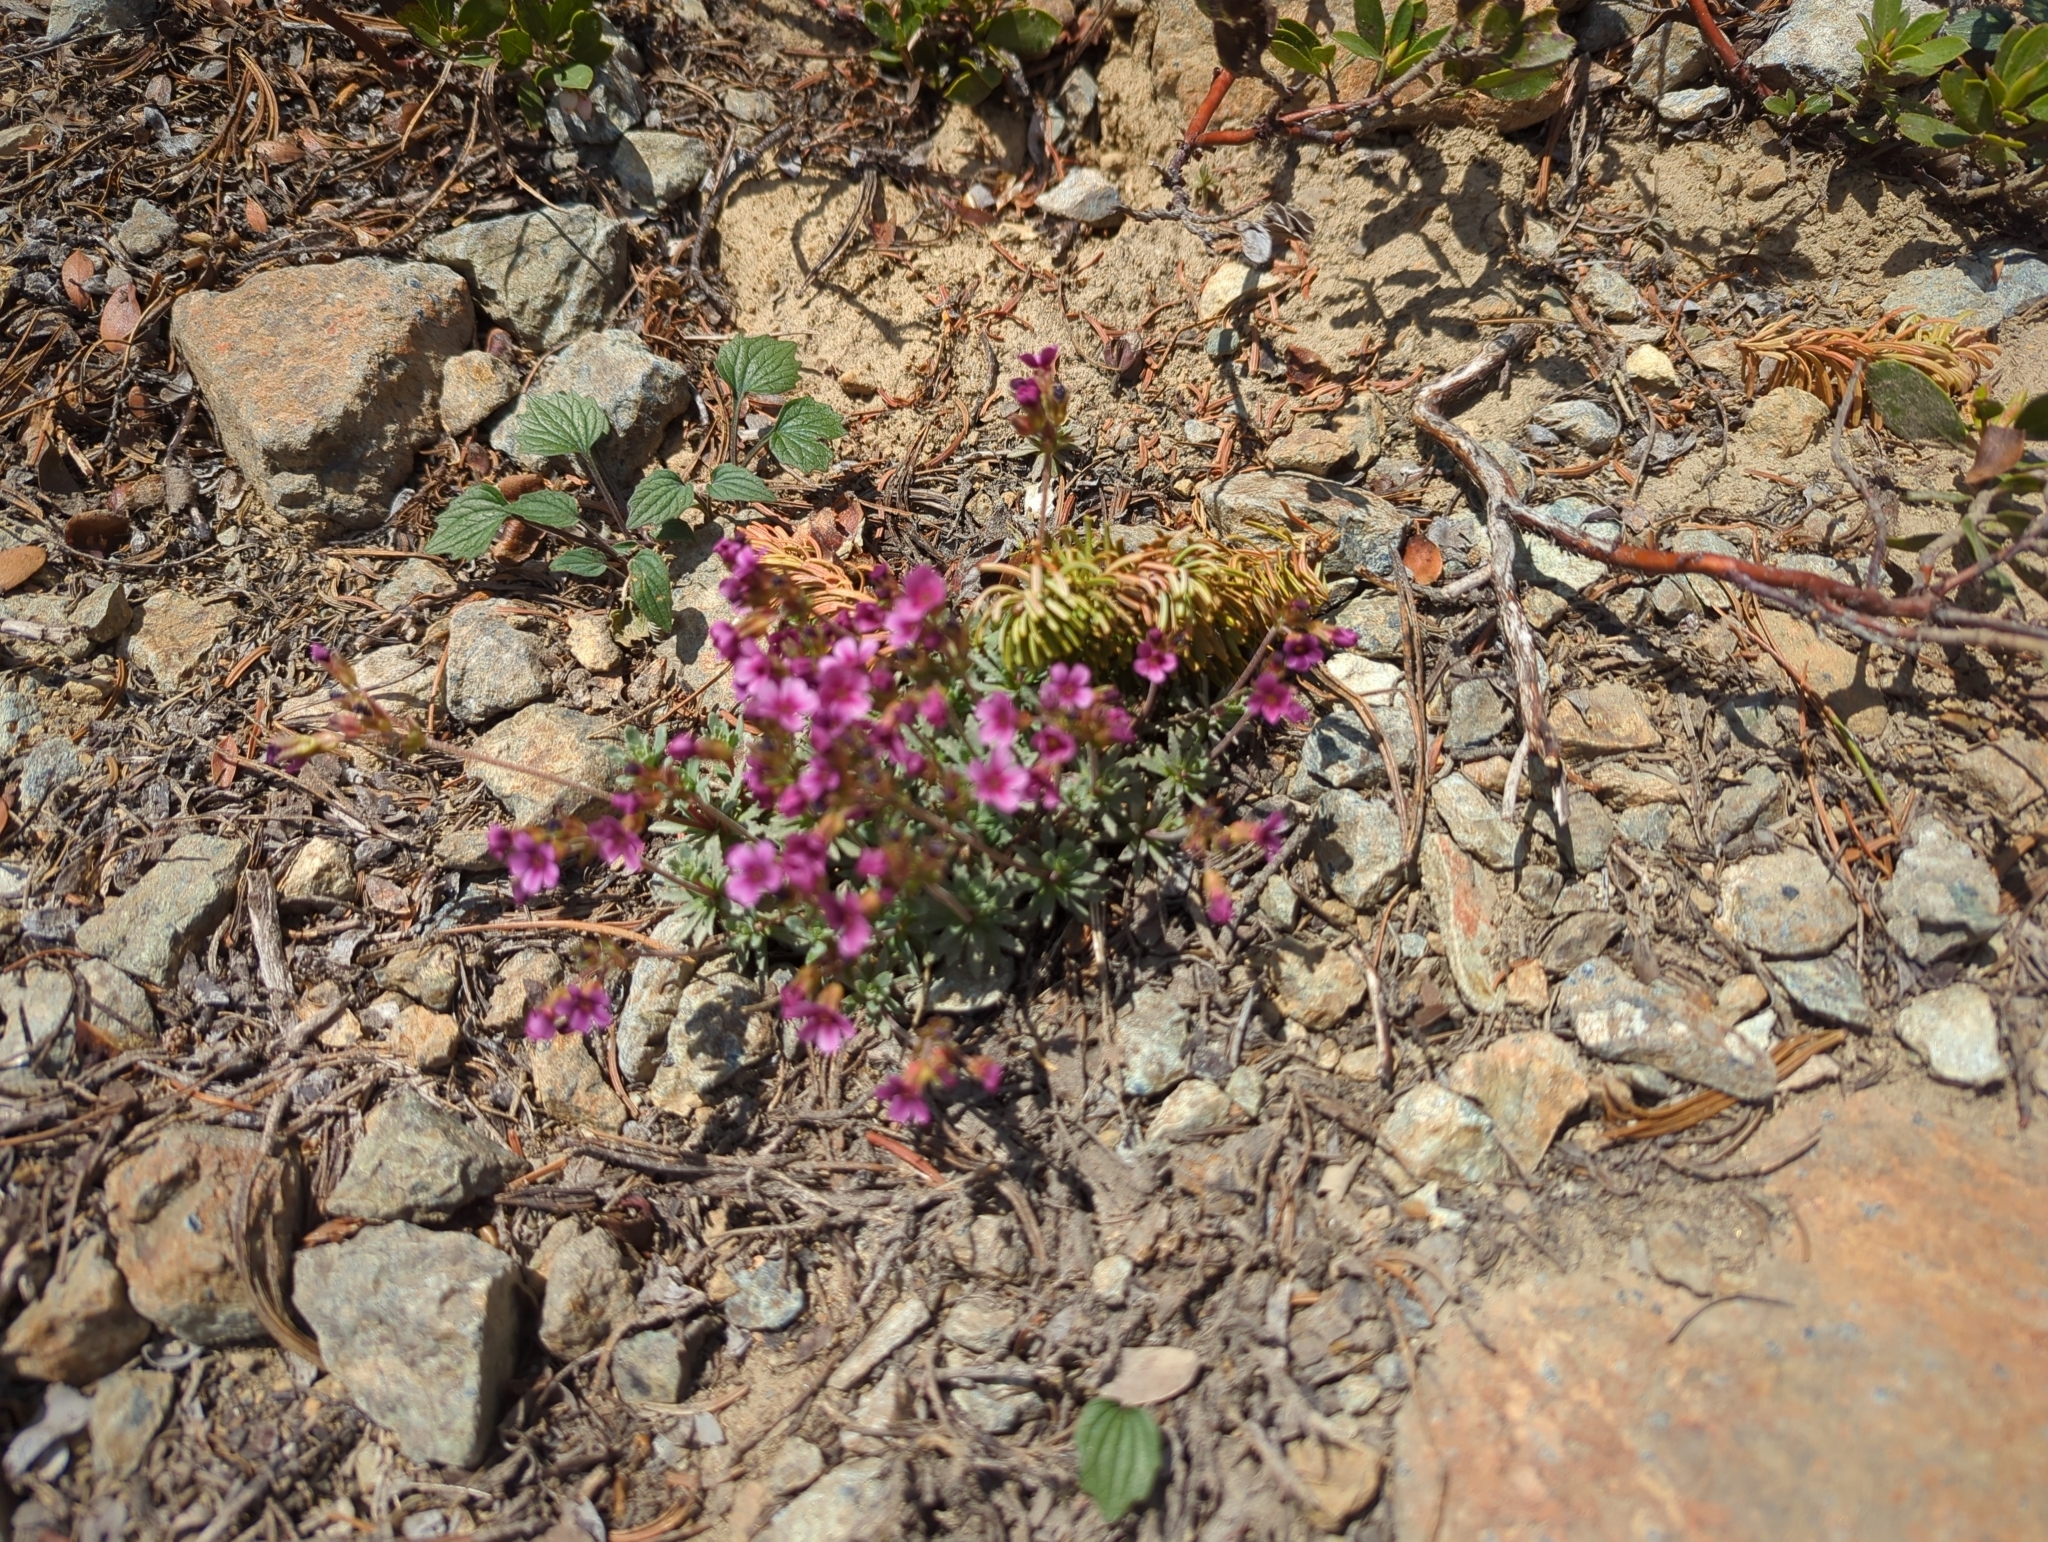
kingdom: Plantae
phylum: Tracheophyta
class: Magnoliopsida
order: Ericales
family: Primulaceae
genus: Androsace
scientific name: Androsace nivalis
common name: Snow dwarf-primrose
